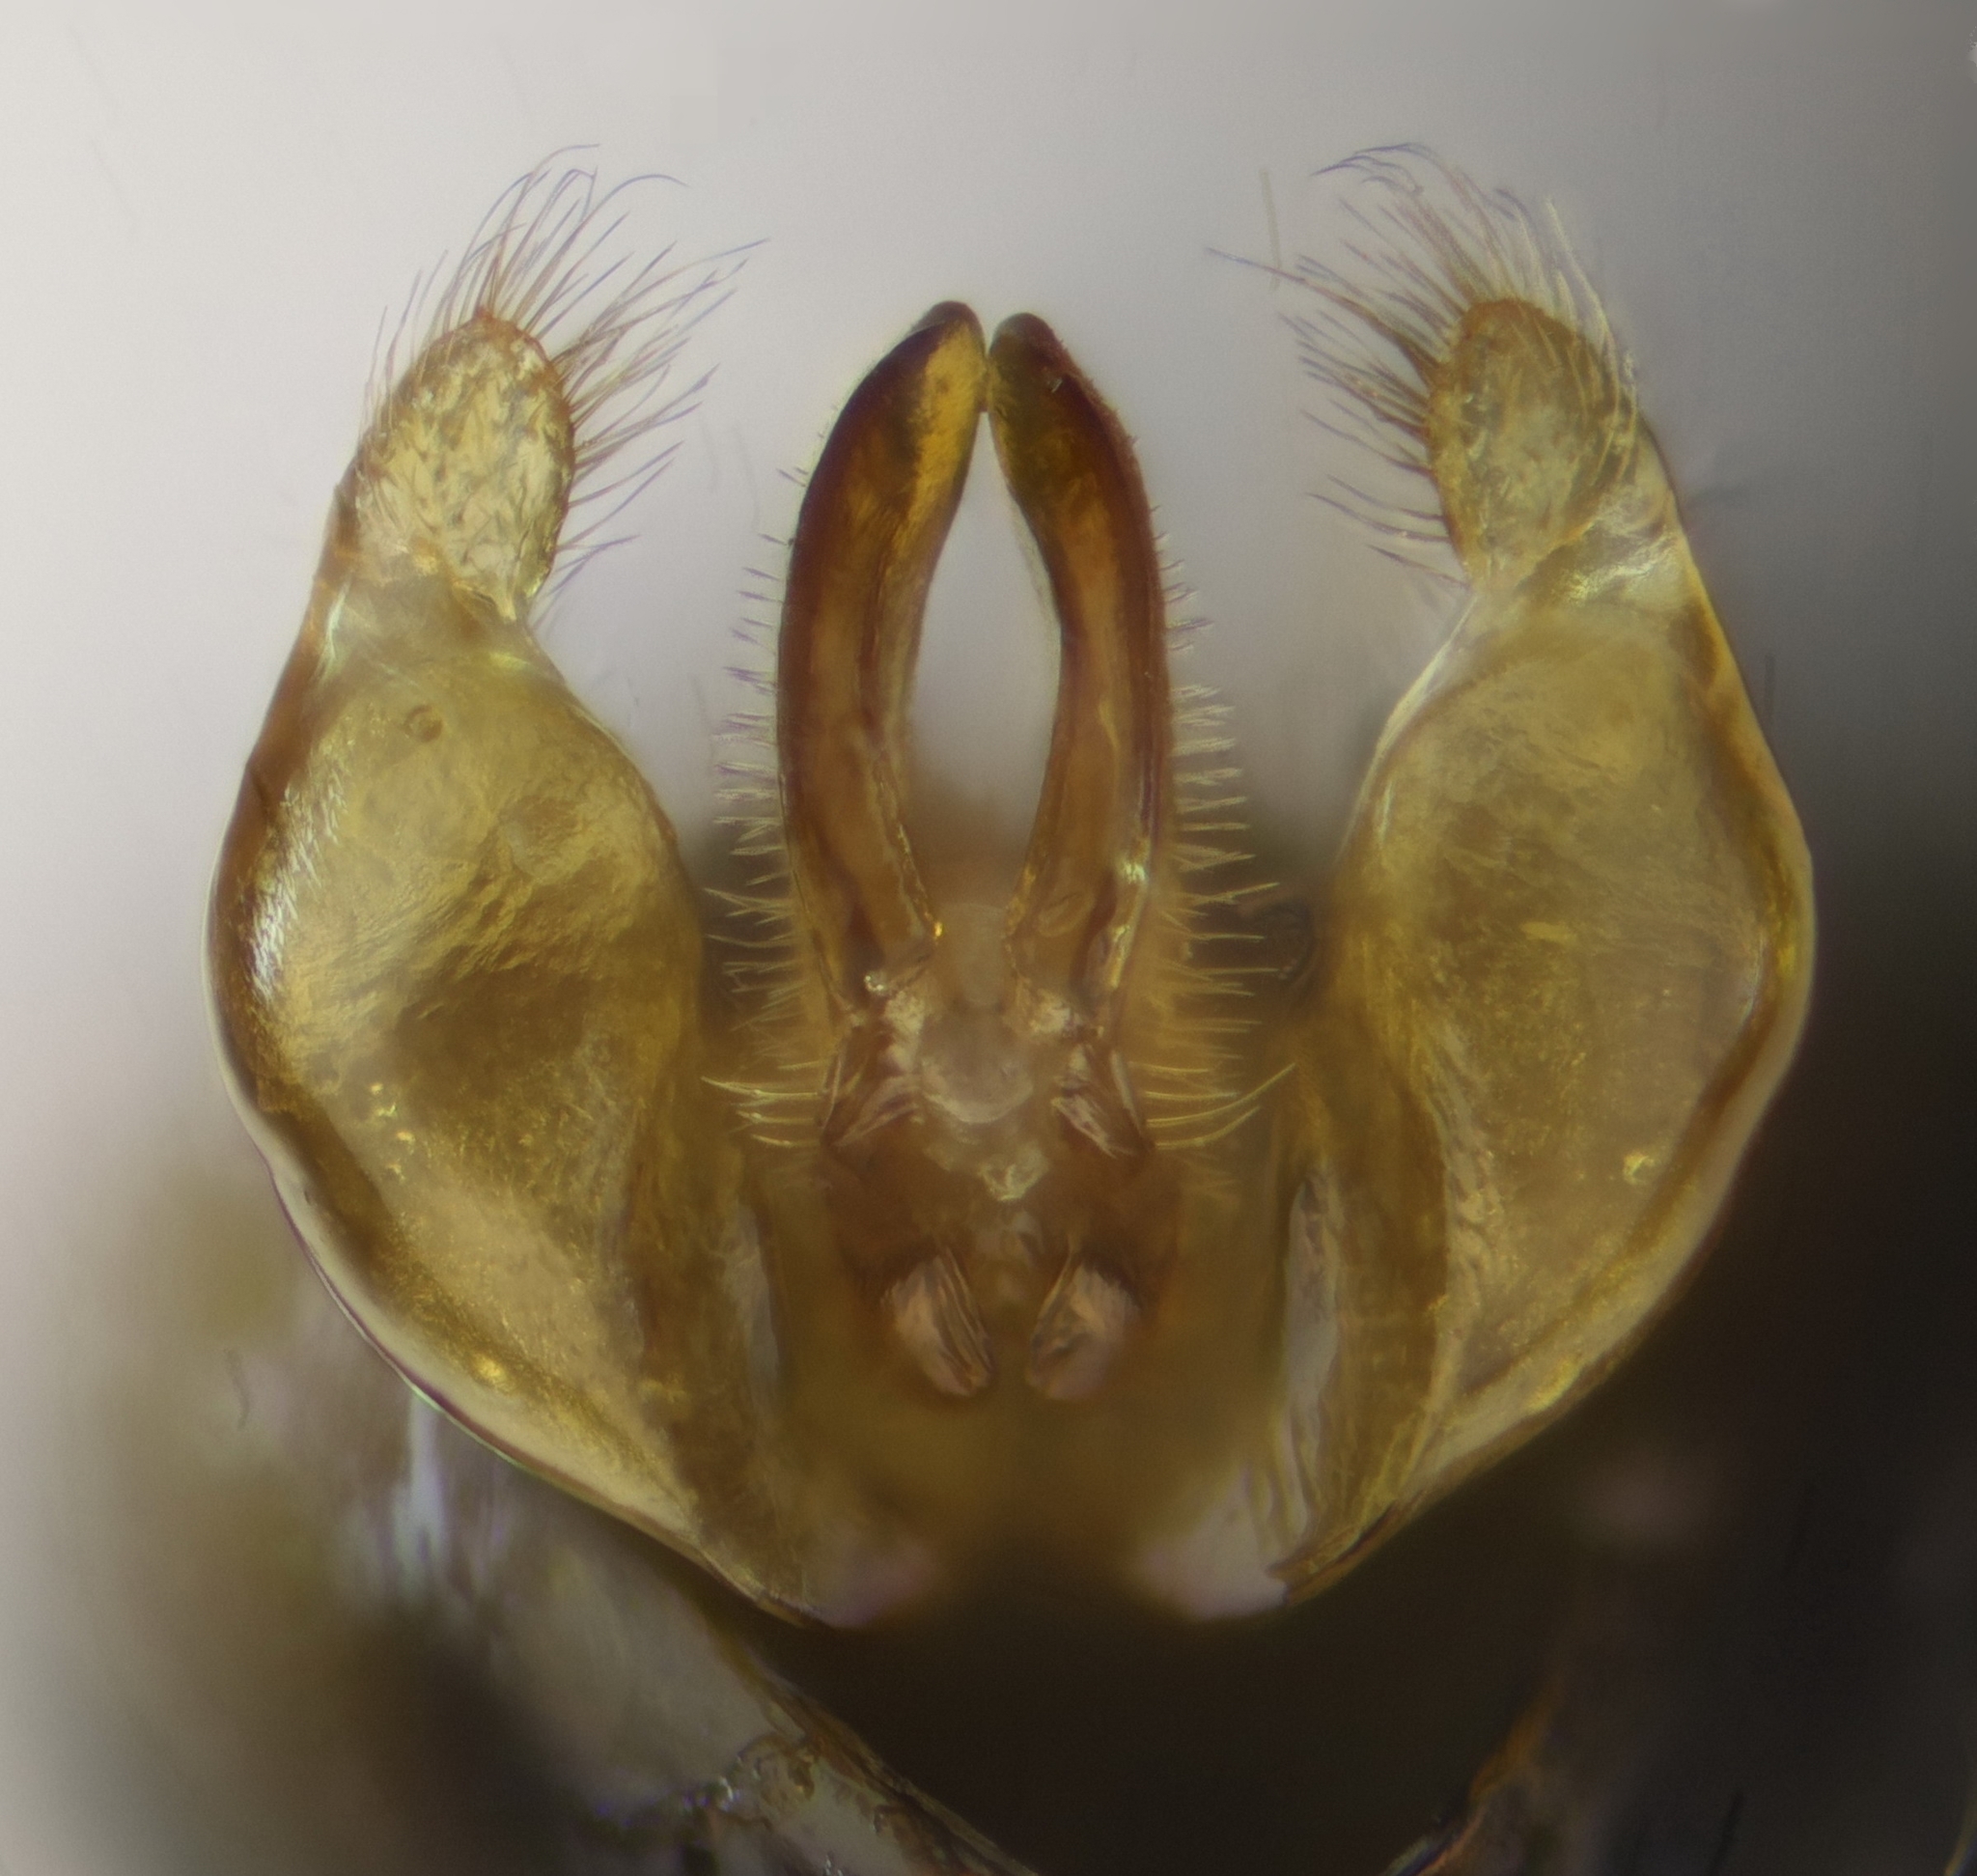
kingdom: Animalia
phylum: Arthropoda
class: Insecta
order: Hymenoptera
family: Halictidae
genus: Lasioglossum
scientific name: Lasioglossum bimaculatum
